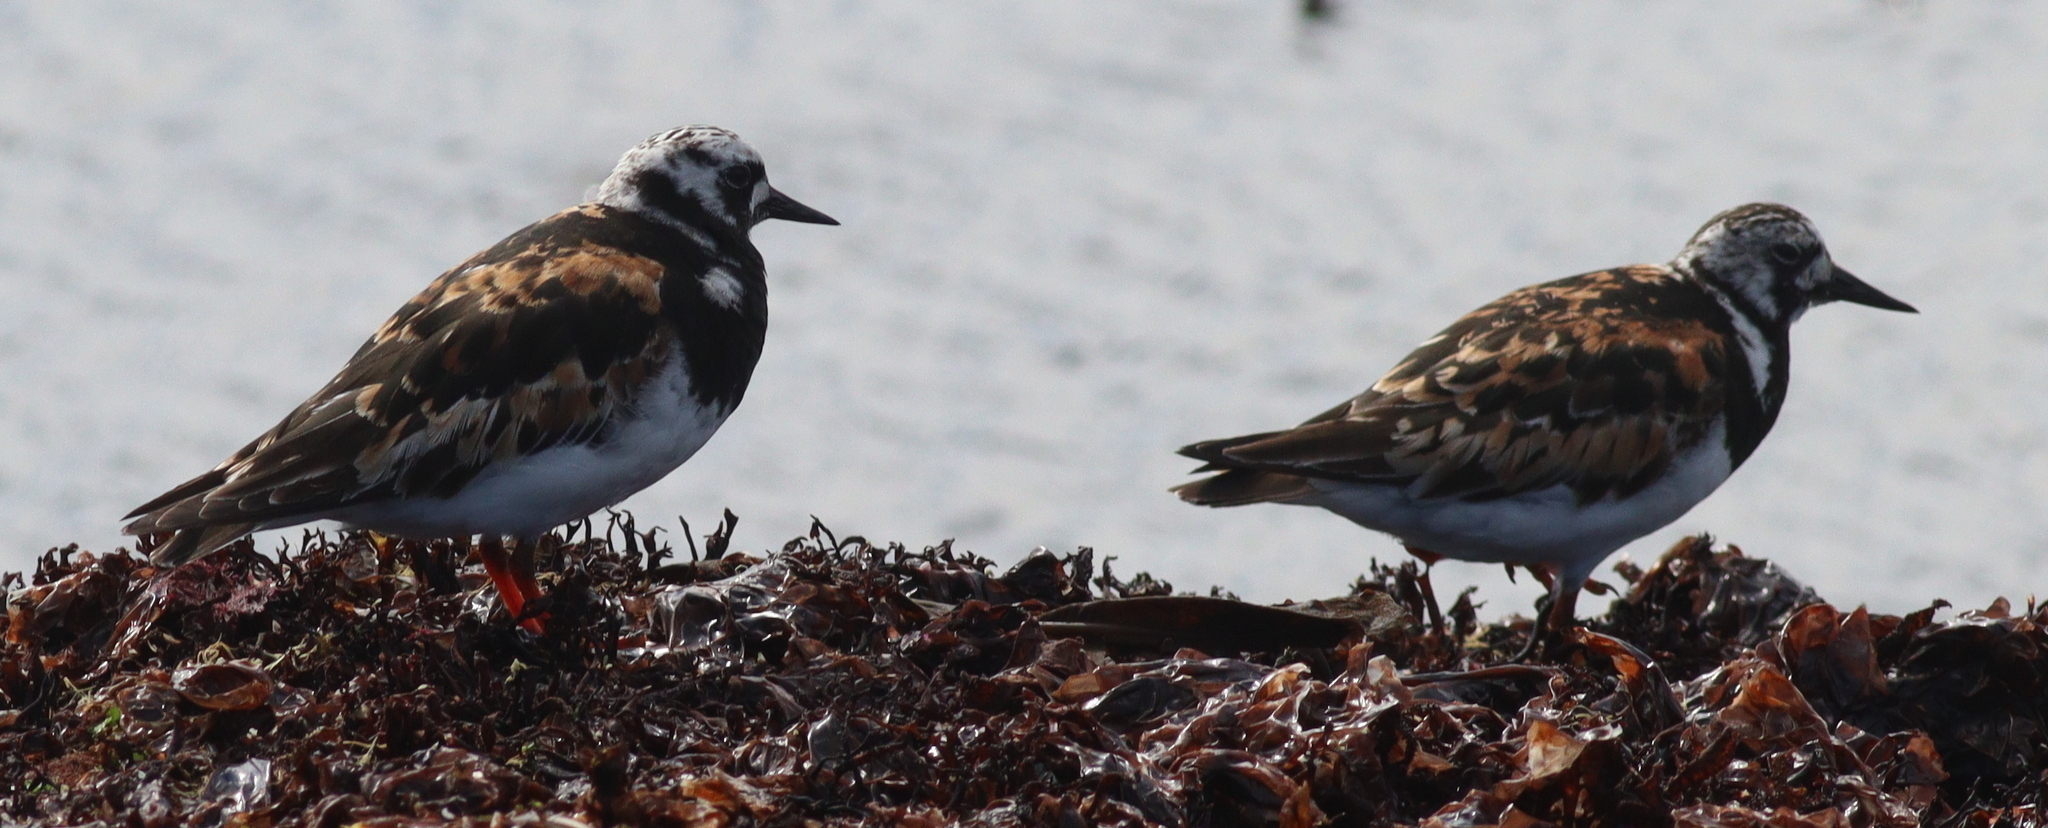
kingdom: Animalia
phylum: Chordata
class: Aves
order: Charadriiformes
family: Scolopacidae
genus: Arenaria
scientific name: Arenaria interpres
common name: Ruddy turnstone
